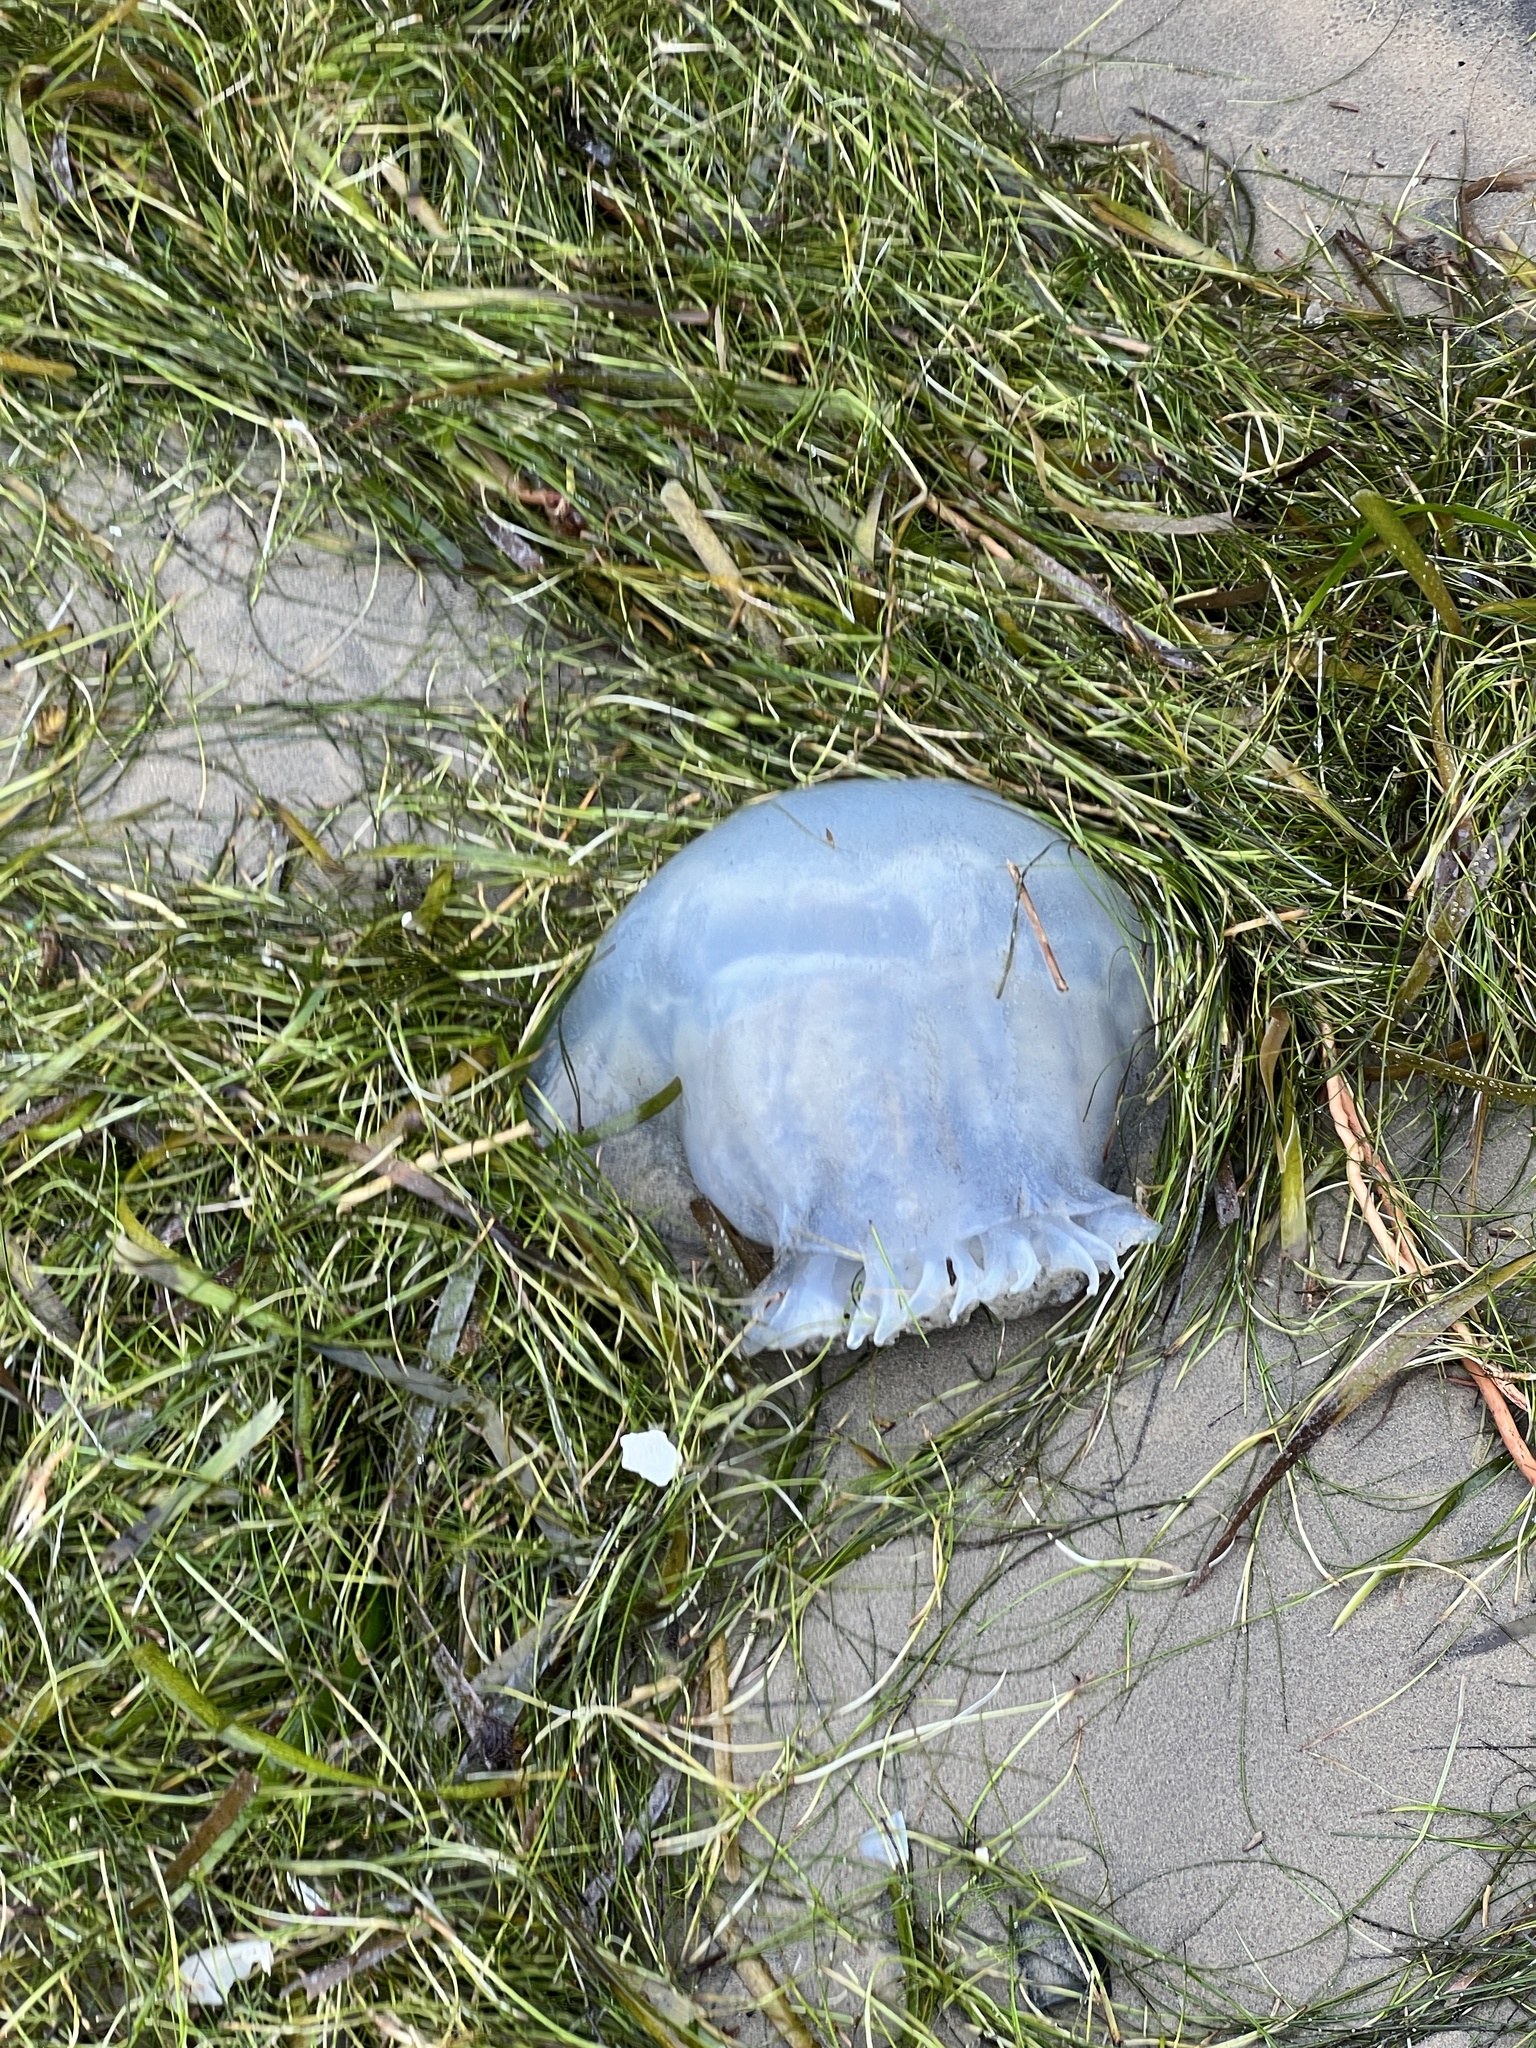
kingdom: Animalia
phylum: Cnidaria
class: Scyphozoa
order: Rhizostomeae
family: Stomolophidae
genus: Stomolophus
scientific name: Stomolophus meleagris
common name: Cabbagehead
